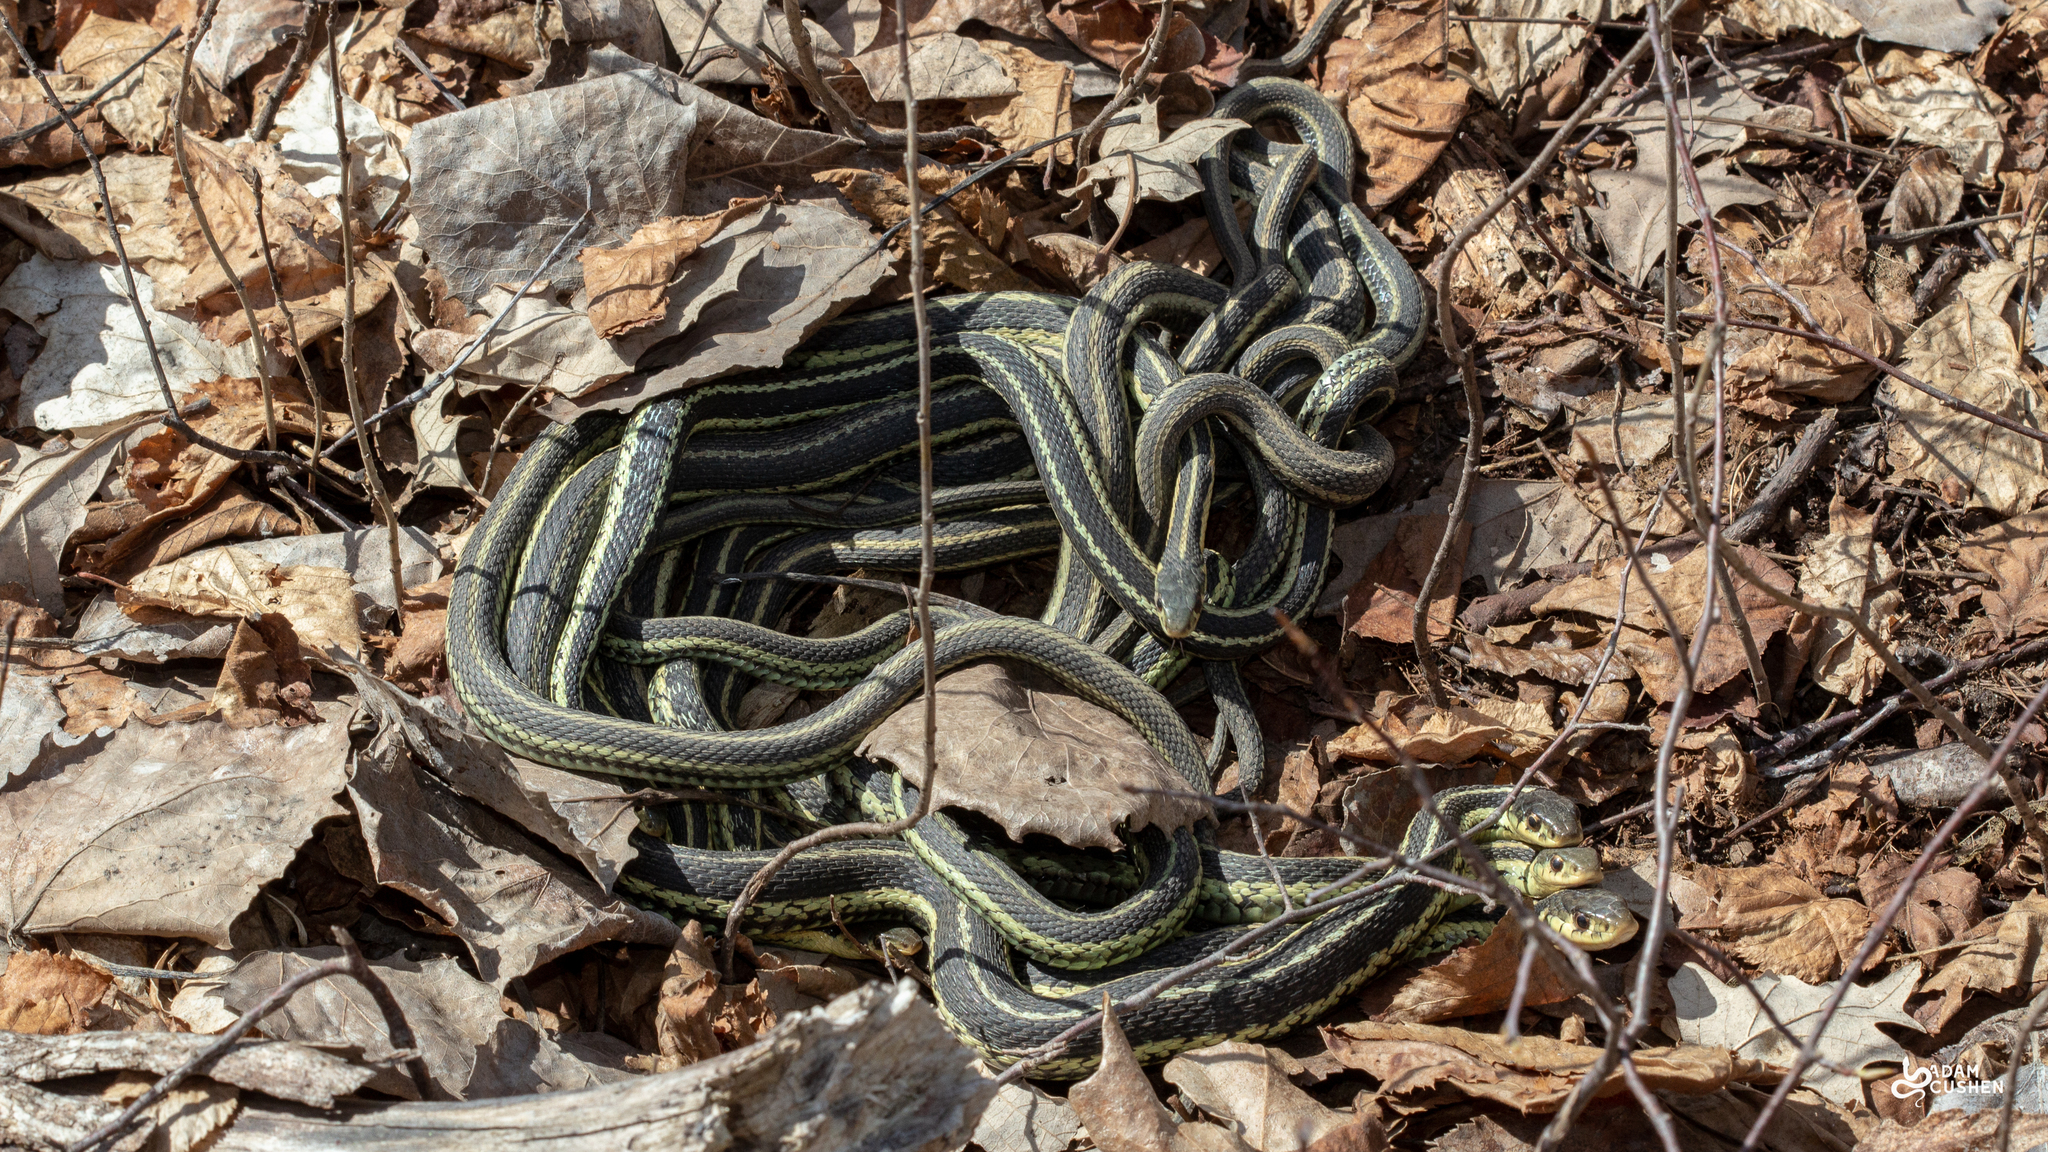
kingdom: Animalia
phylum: Chordata
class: Squamata
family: Colubridae
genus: Thamnophis
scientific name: Thamnophis sirtalis
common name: Common garter snake
